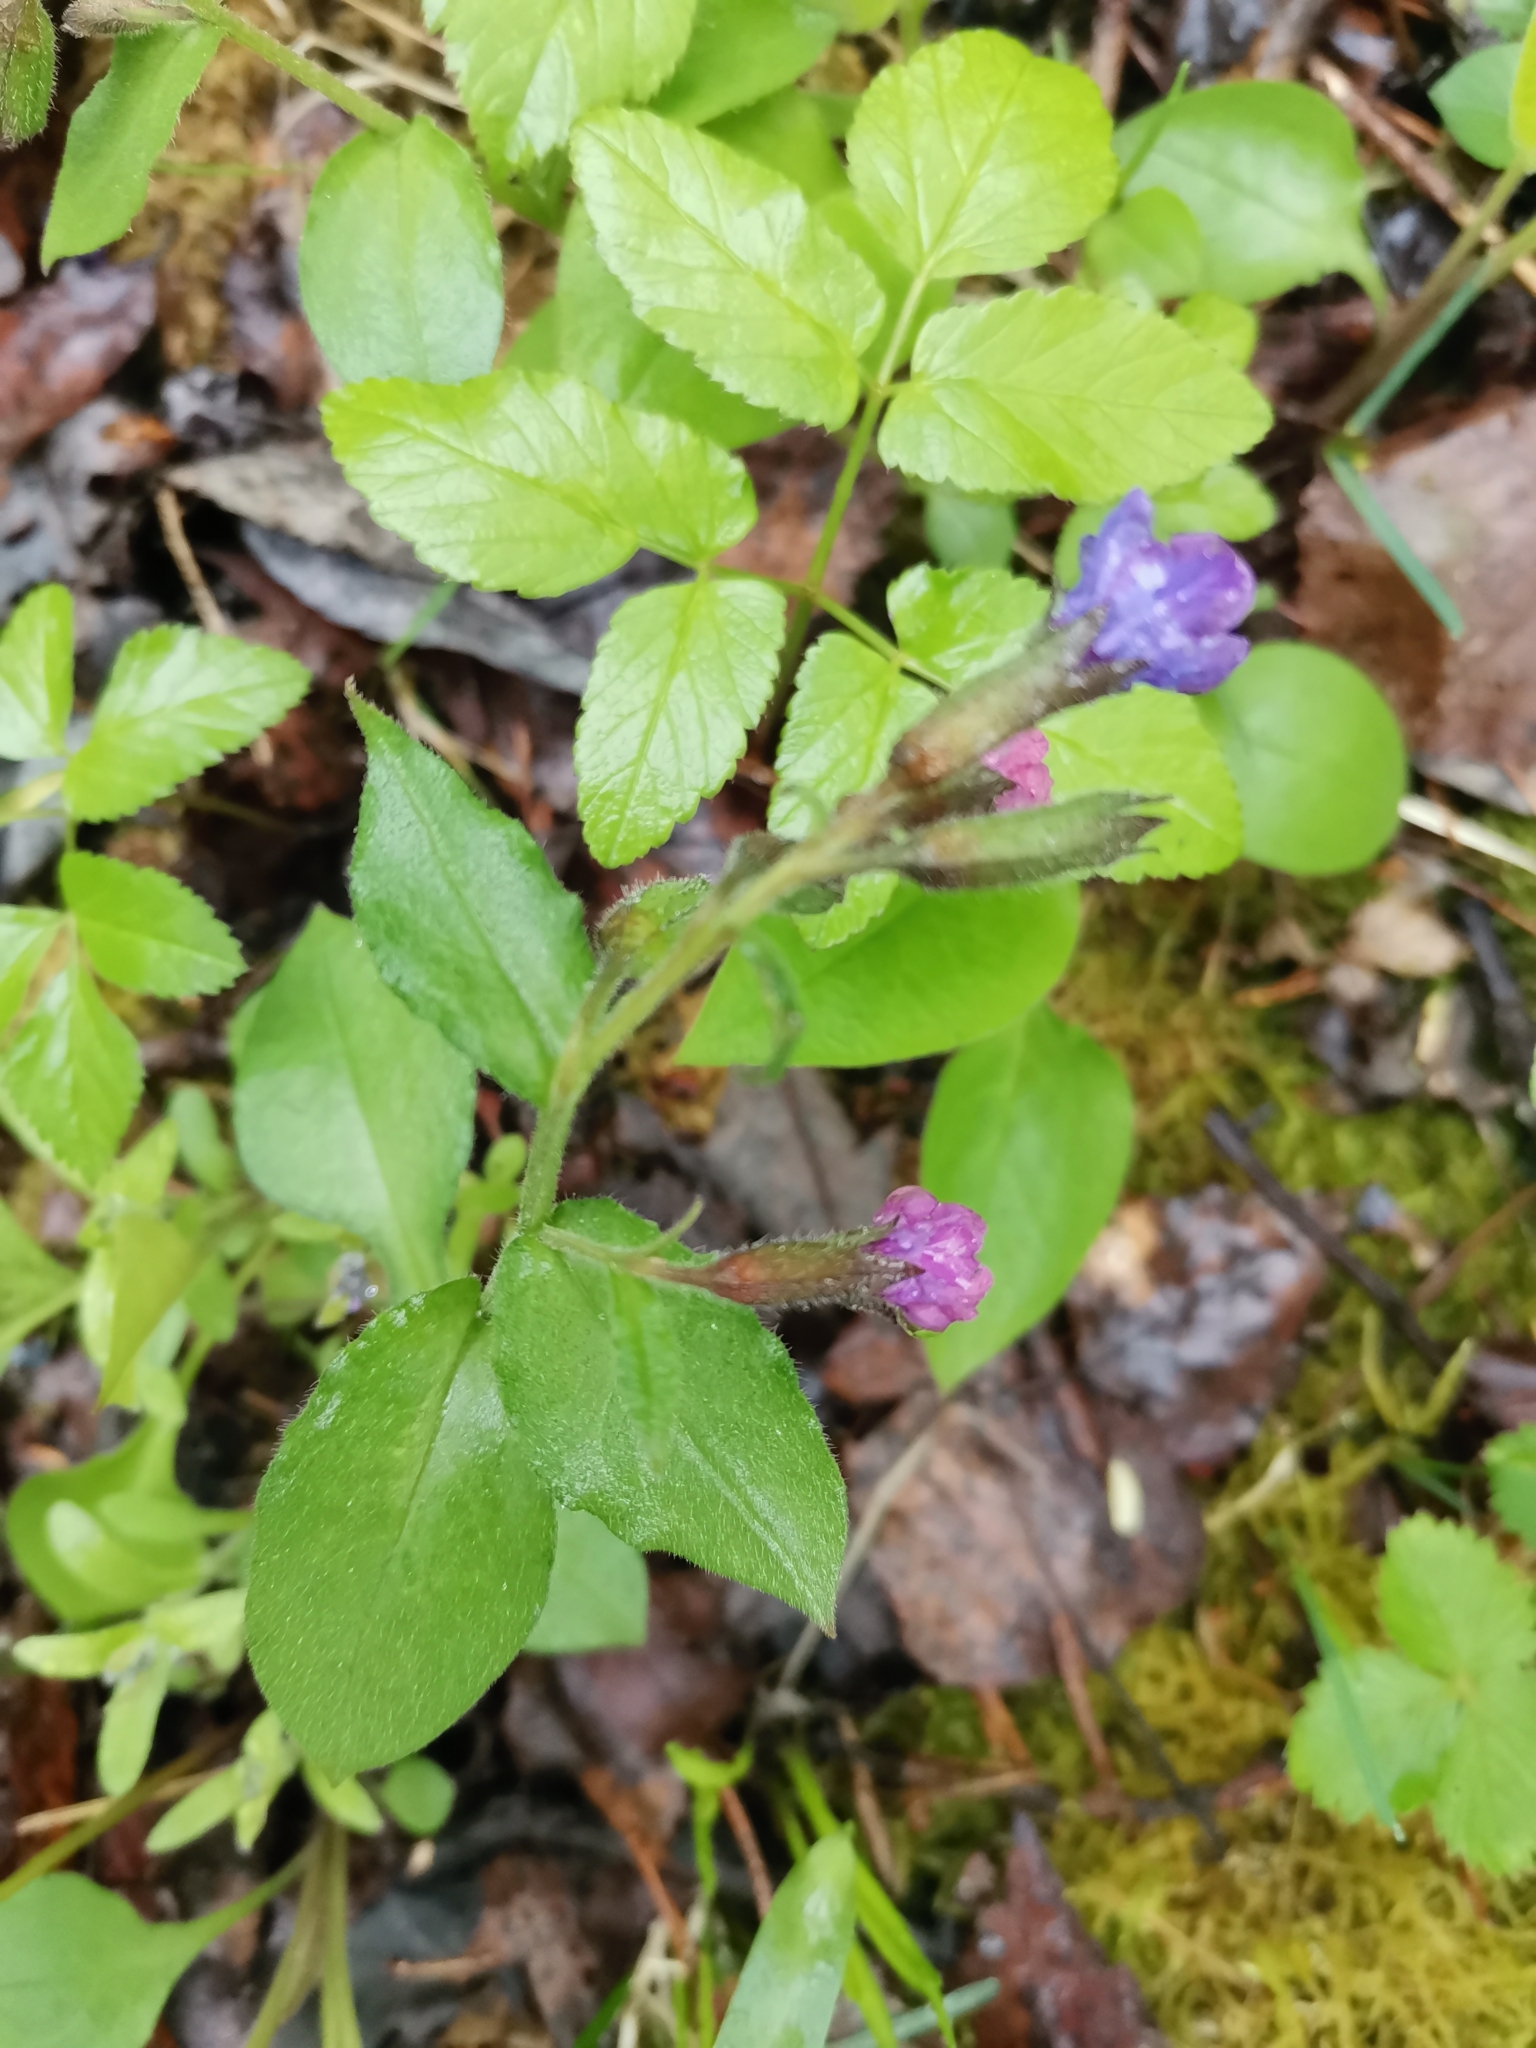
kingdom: Plantae
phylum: Tracheophyta
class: Magnoliopsida
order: Boraginales
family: Boraginaceae
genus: Pulmonaria
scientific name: Pulmonaria obscura
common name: Suffolk lungwort
